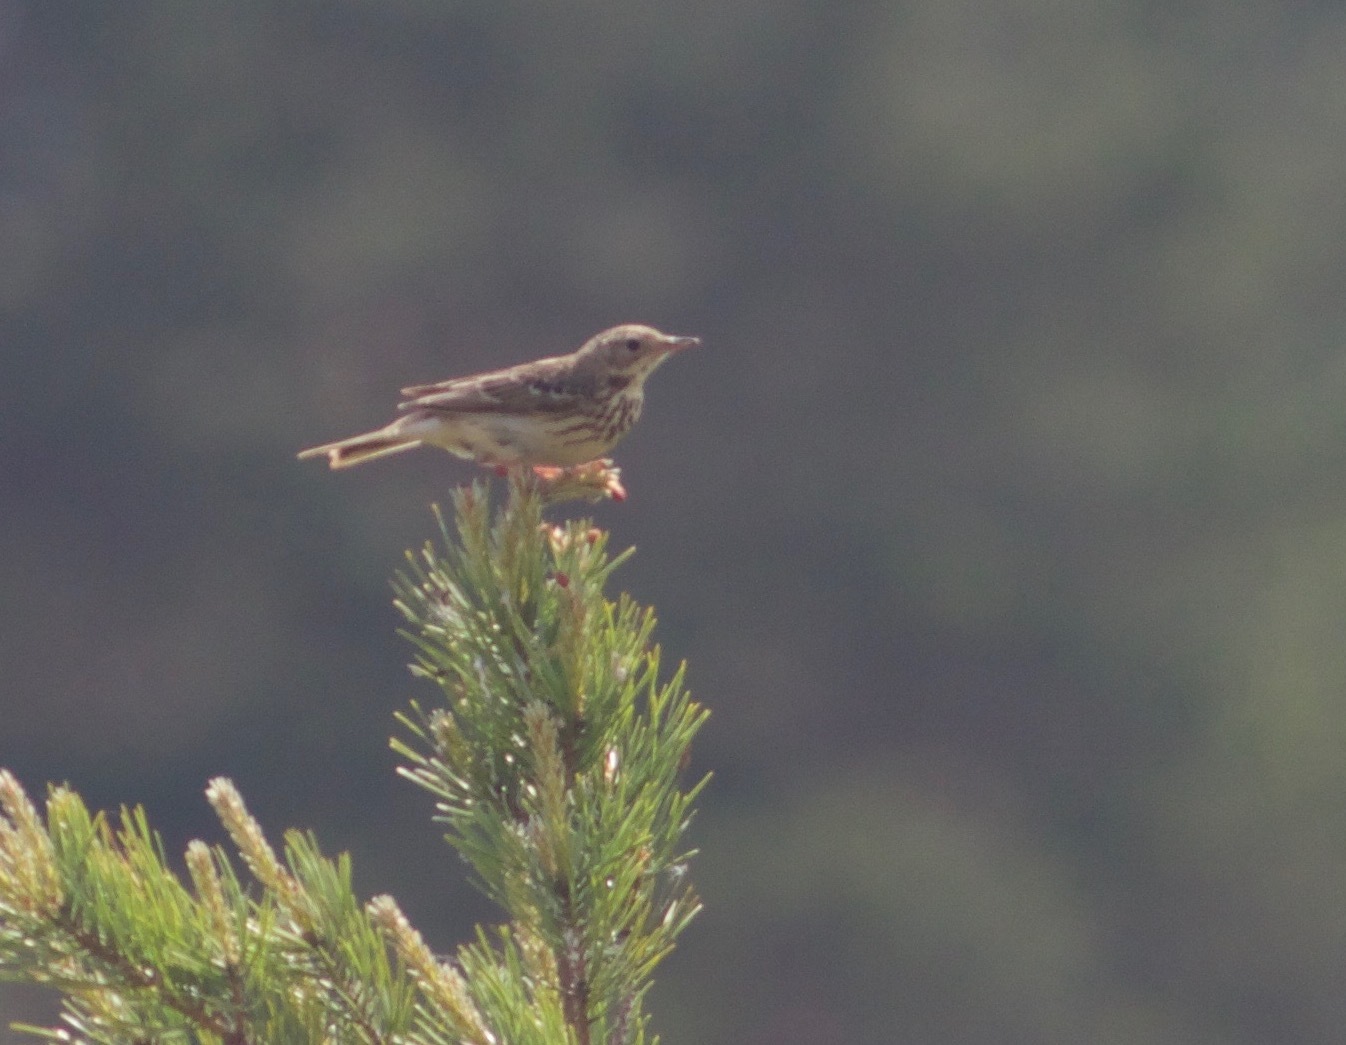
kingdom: Animalia
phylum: Chordata
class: Aves
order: Passeriformes
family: Motacillidae
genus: Anthus
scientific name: Anthus trivialis
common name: Tree pipit
